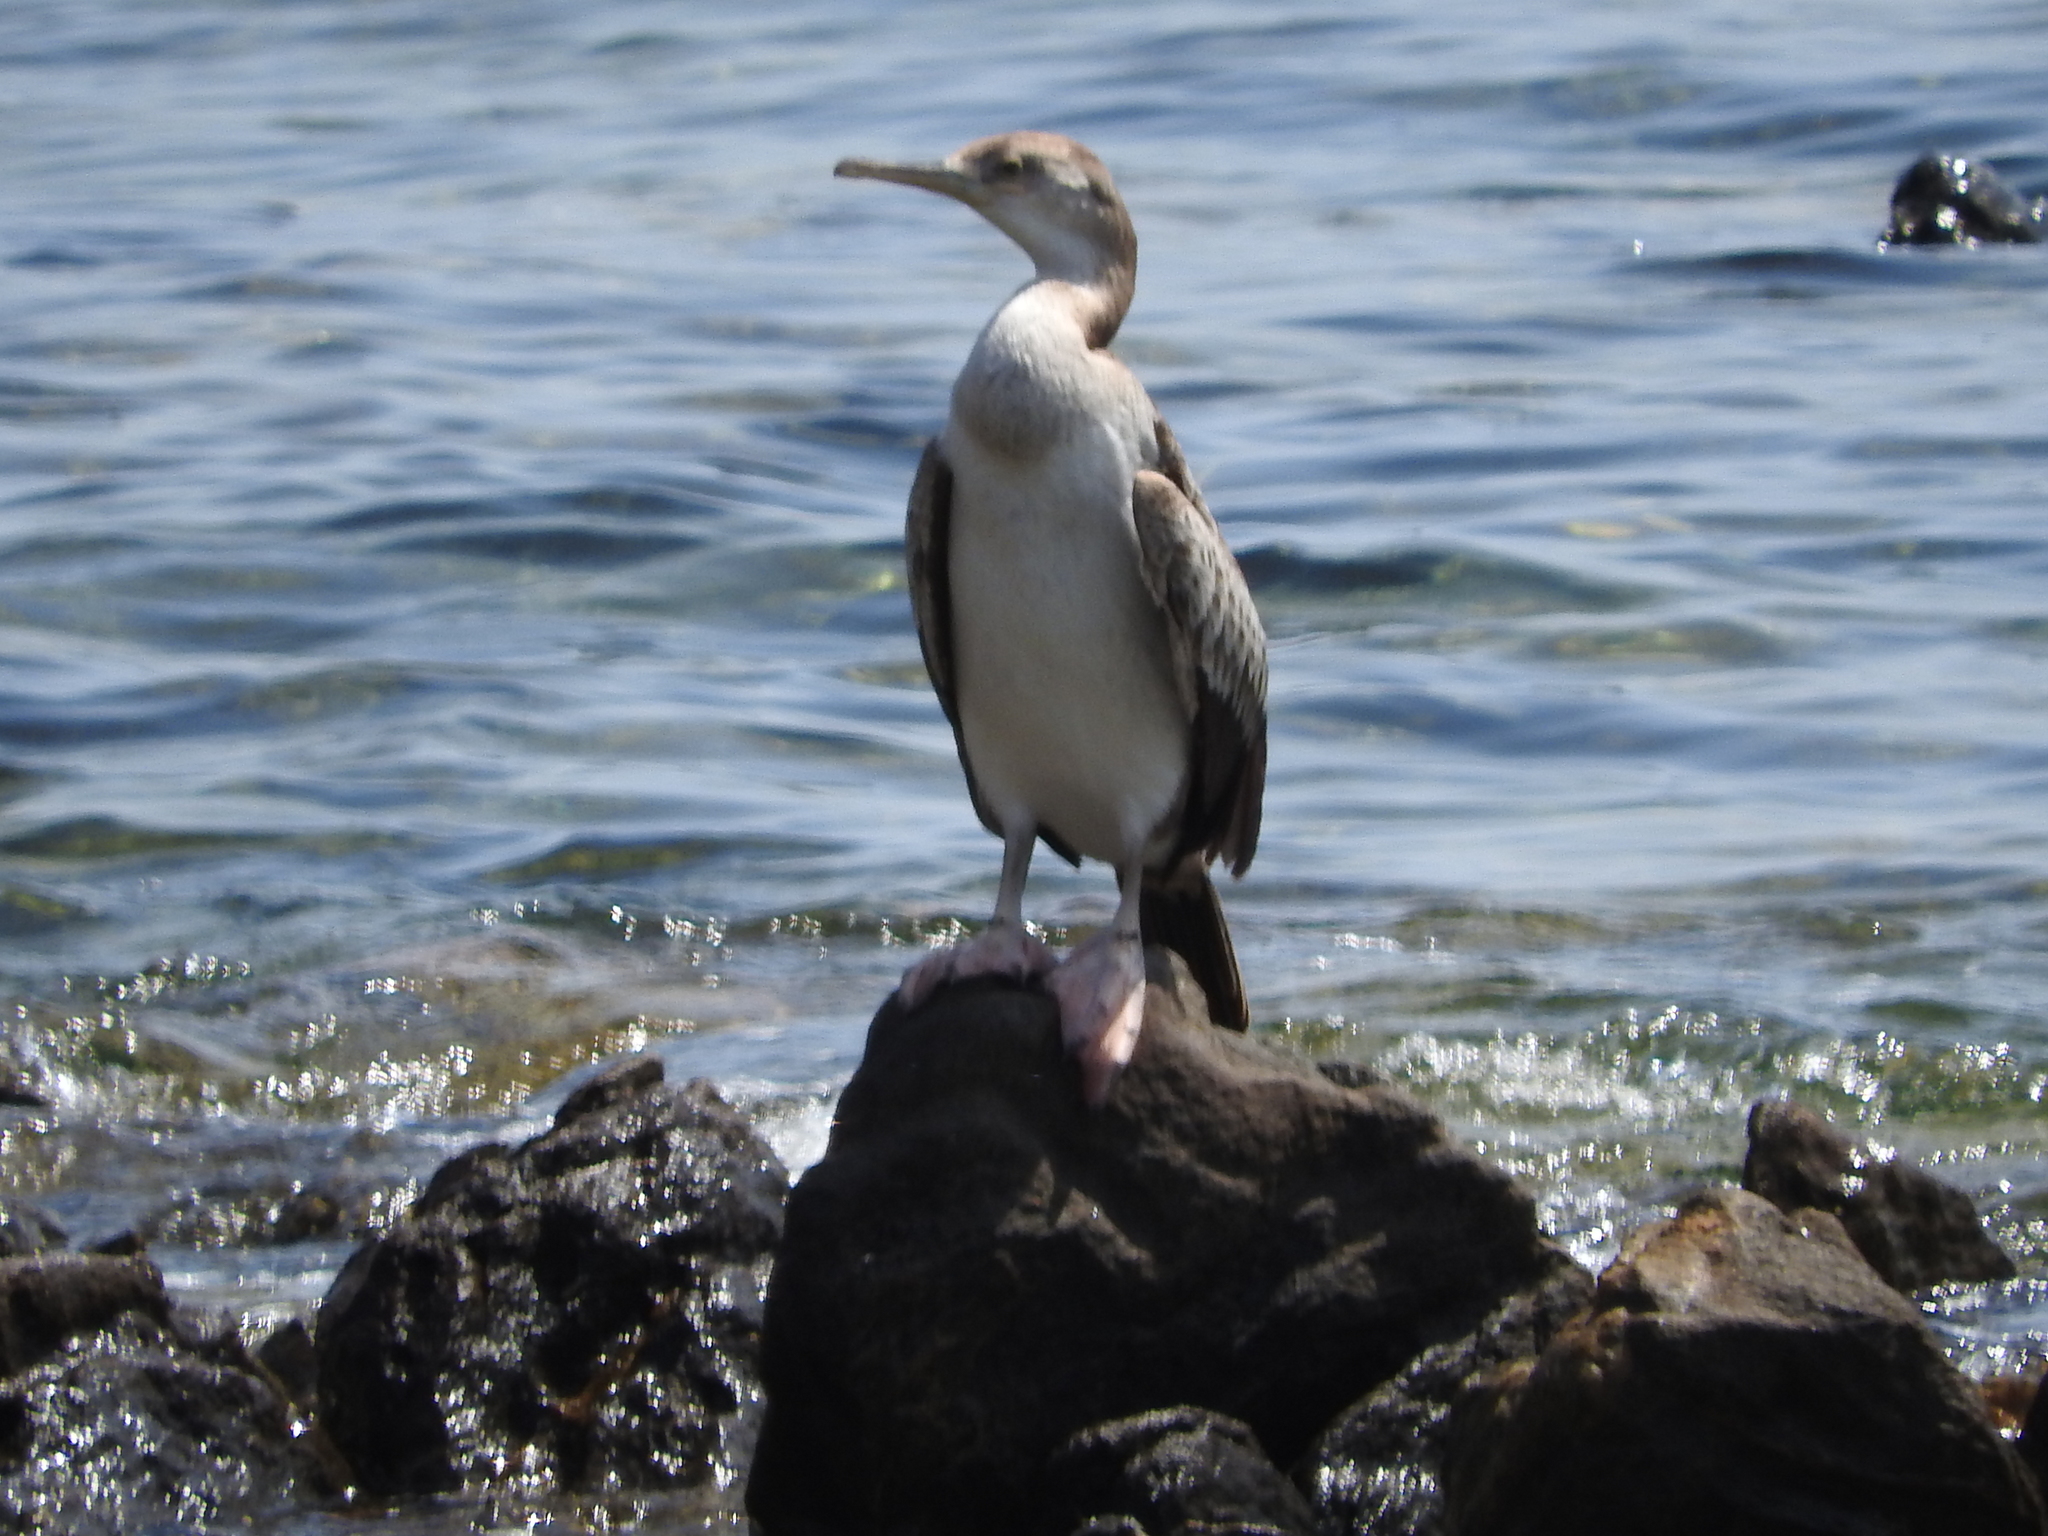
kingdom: Animalia
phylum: Chordata
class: Aves
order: Suliformes
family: Phalacrocoracidae
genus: Phalacrocorax
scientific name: Phalacrocorax aristotelis
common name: European shag
